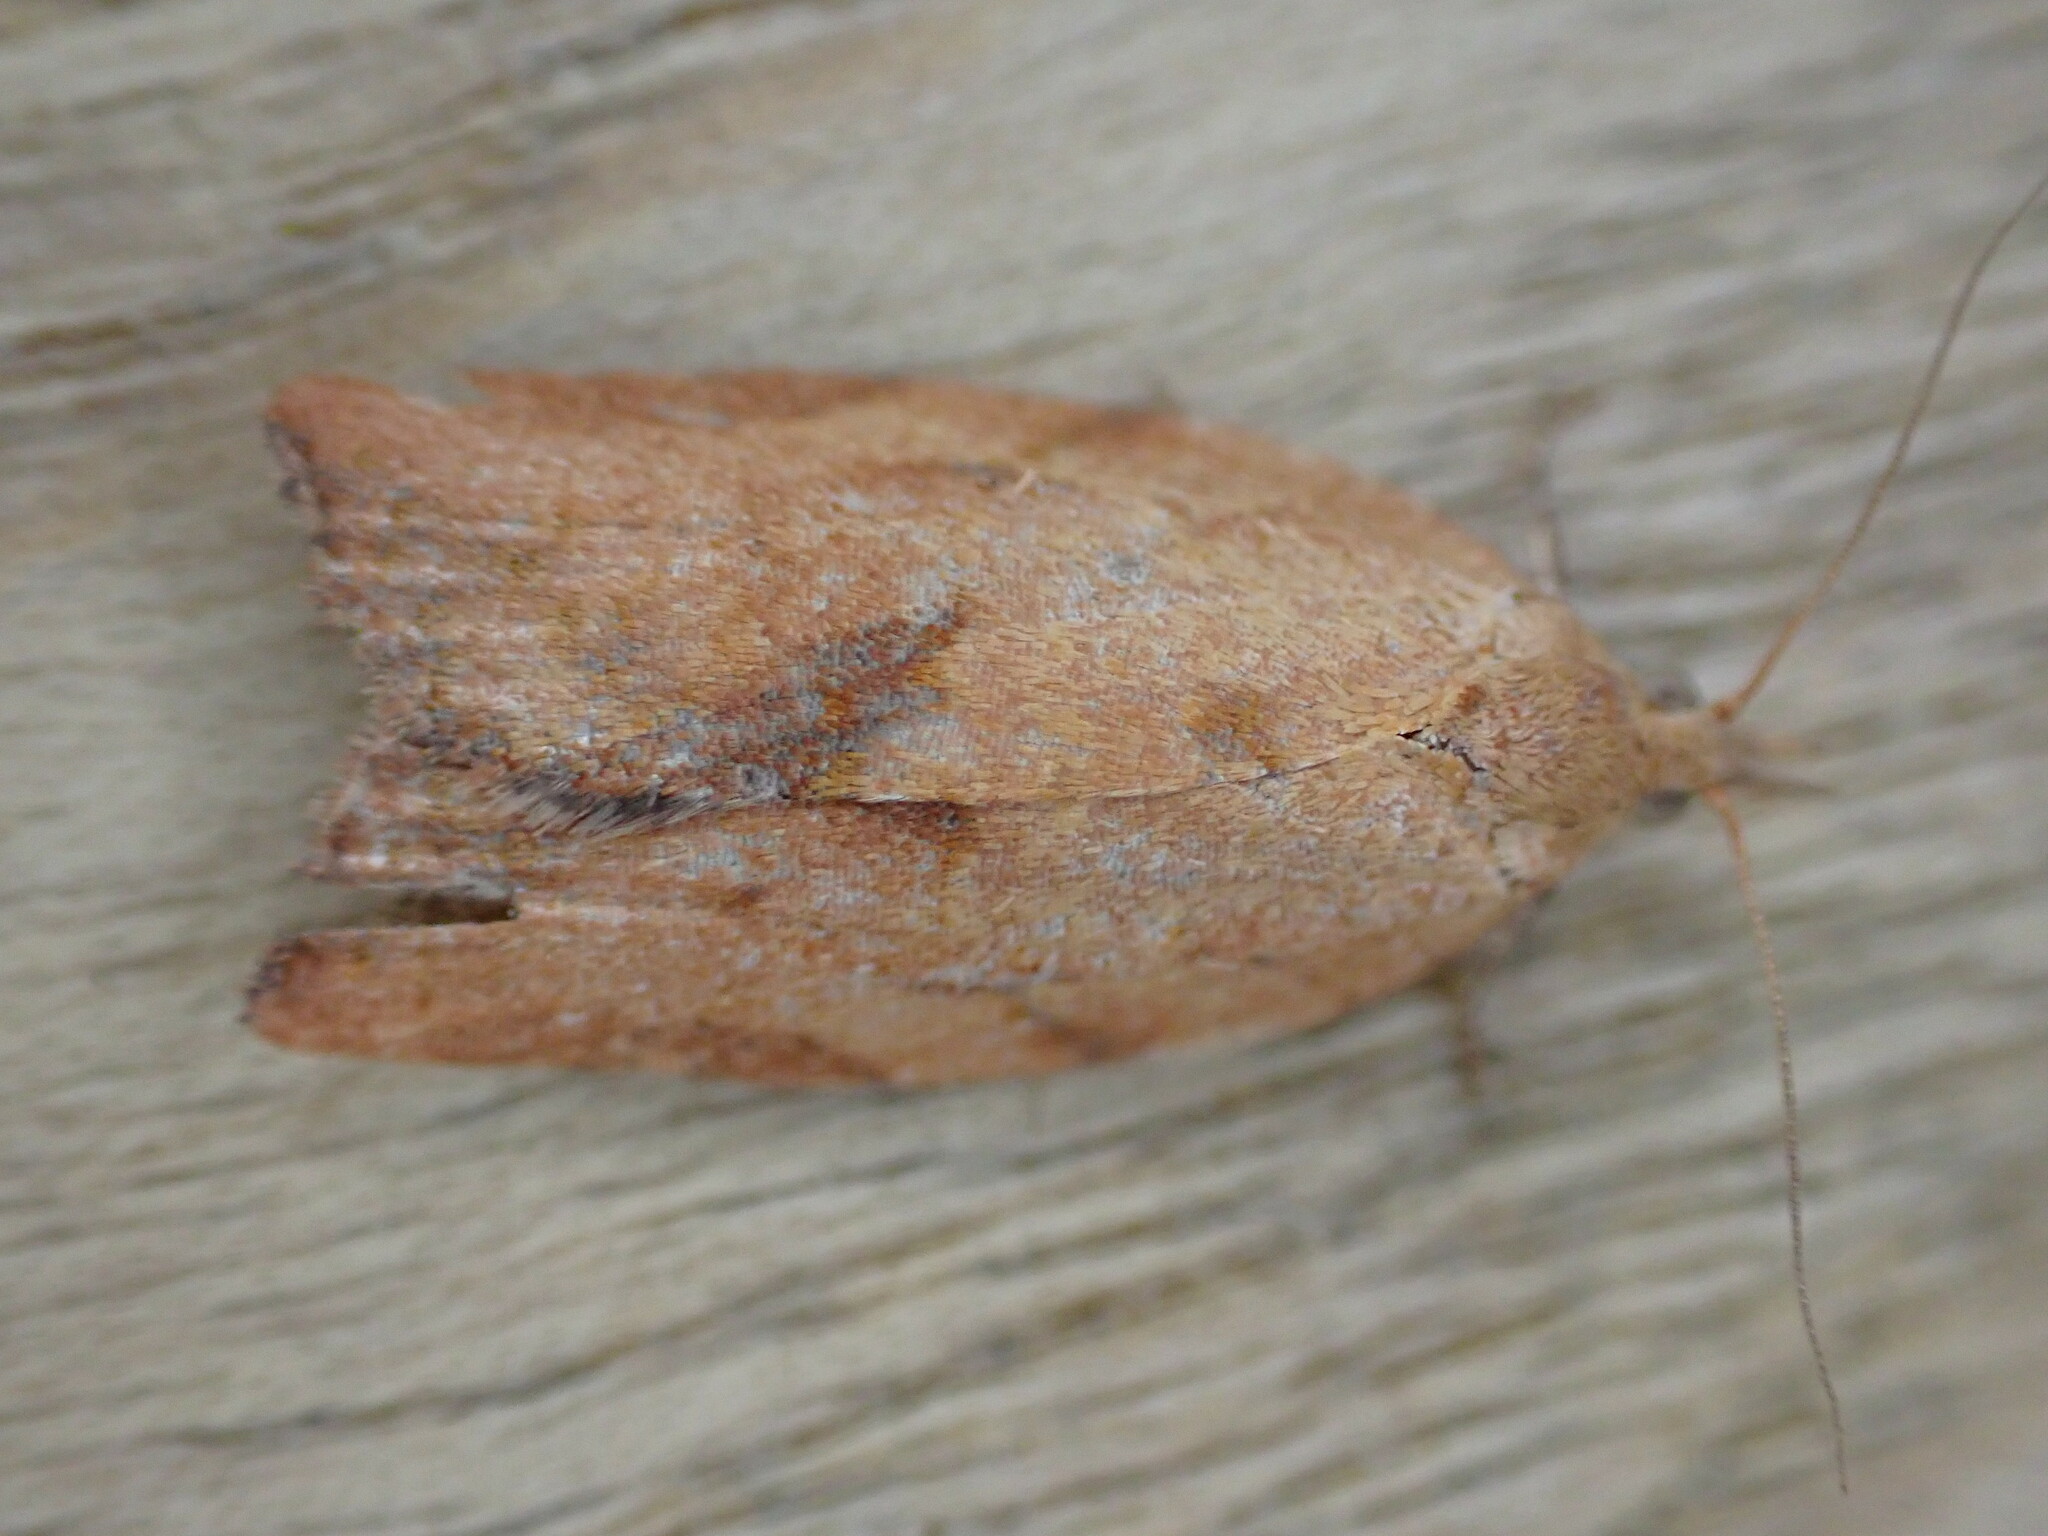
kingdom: Animalia
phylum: Arthropoda
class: Insecta
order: Lepidoptera
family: Tortricidae
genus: Epiphyas
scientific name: Epiphyas postvittana
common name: Light brown apple moth
